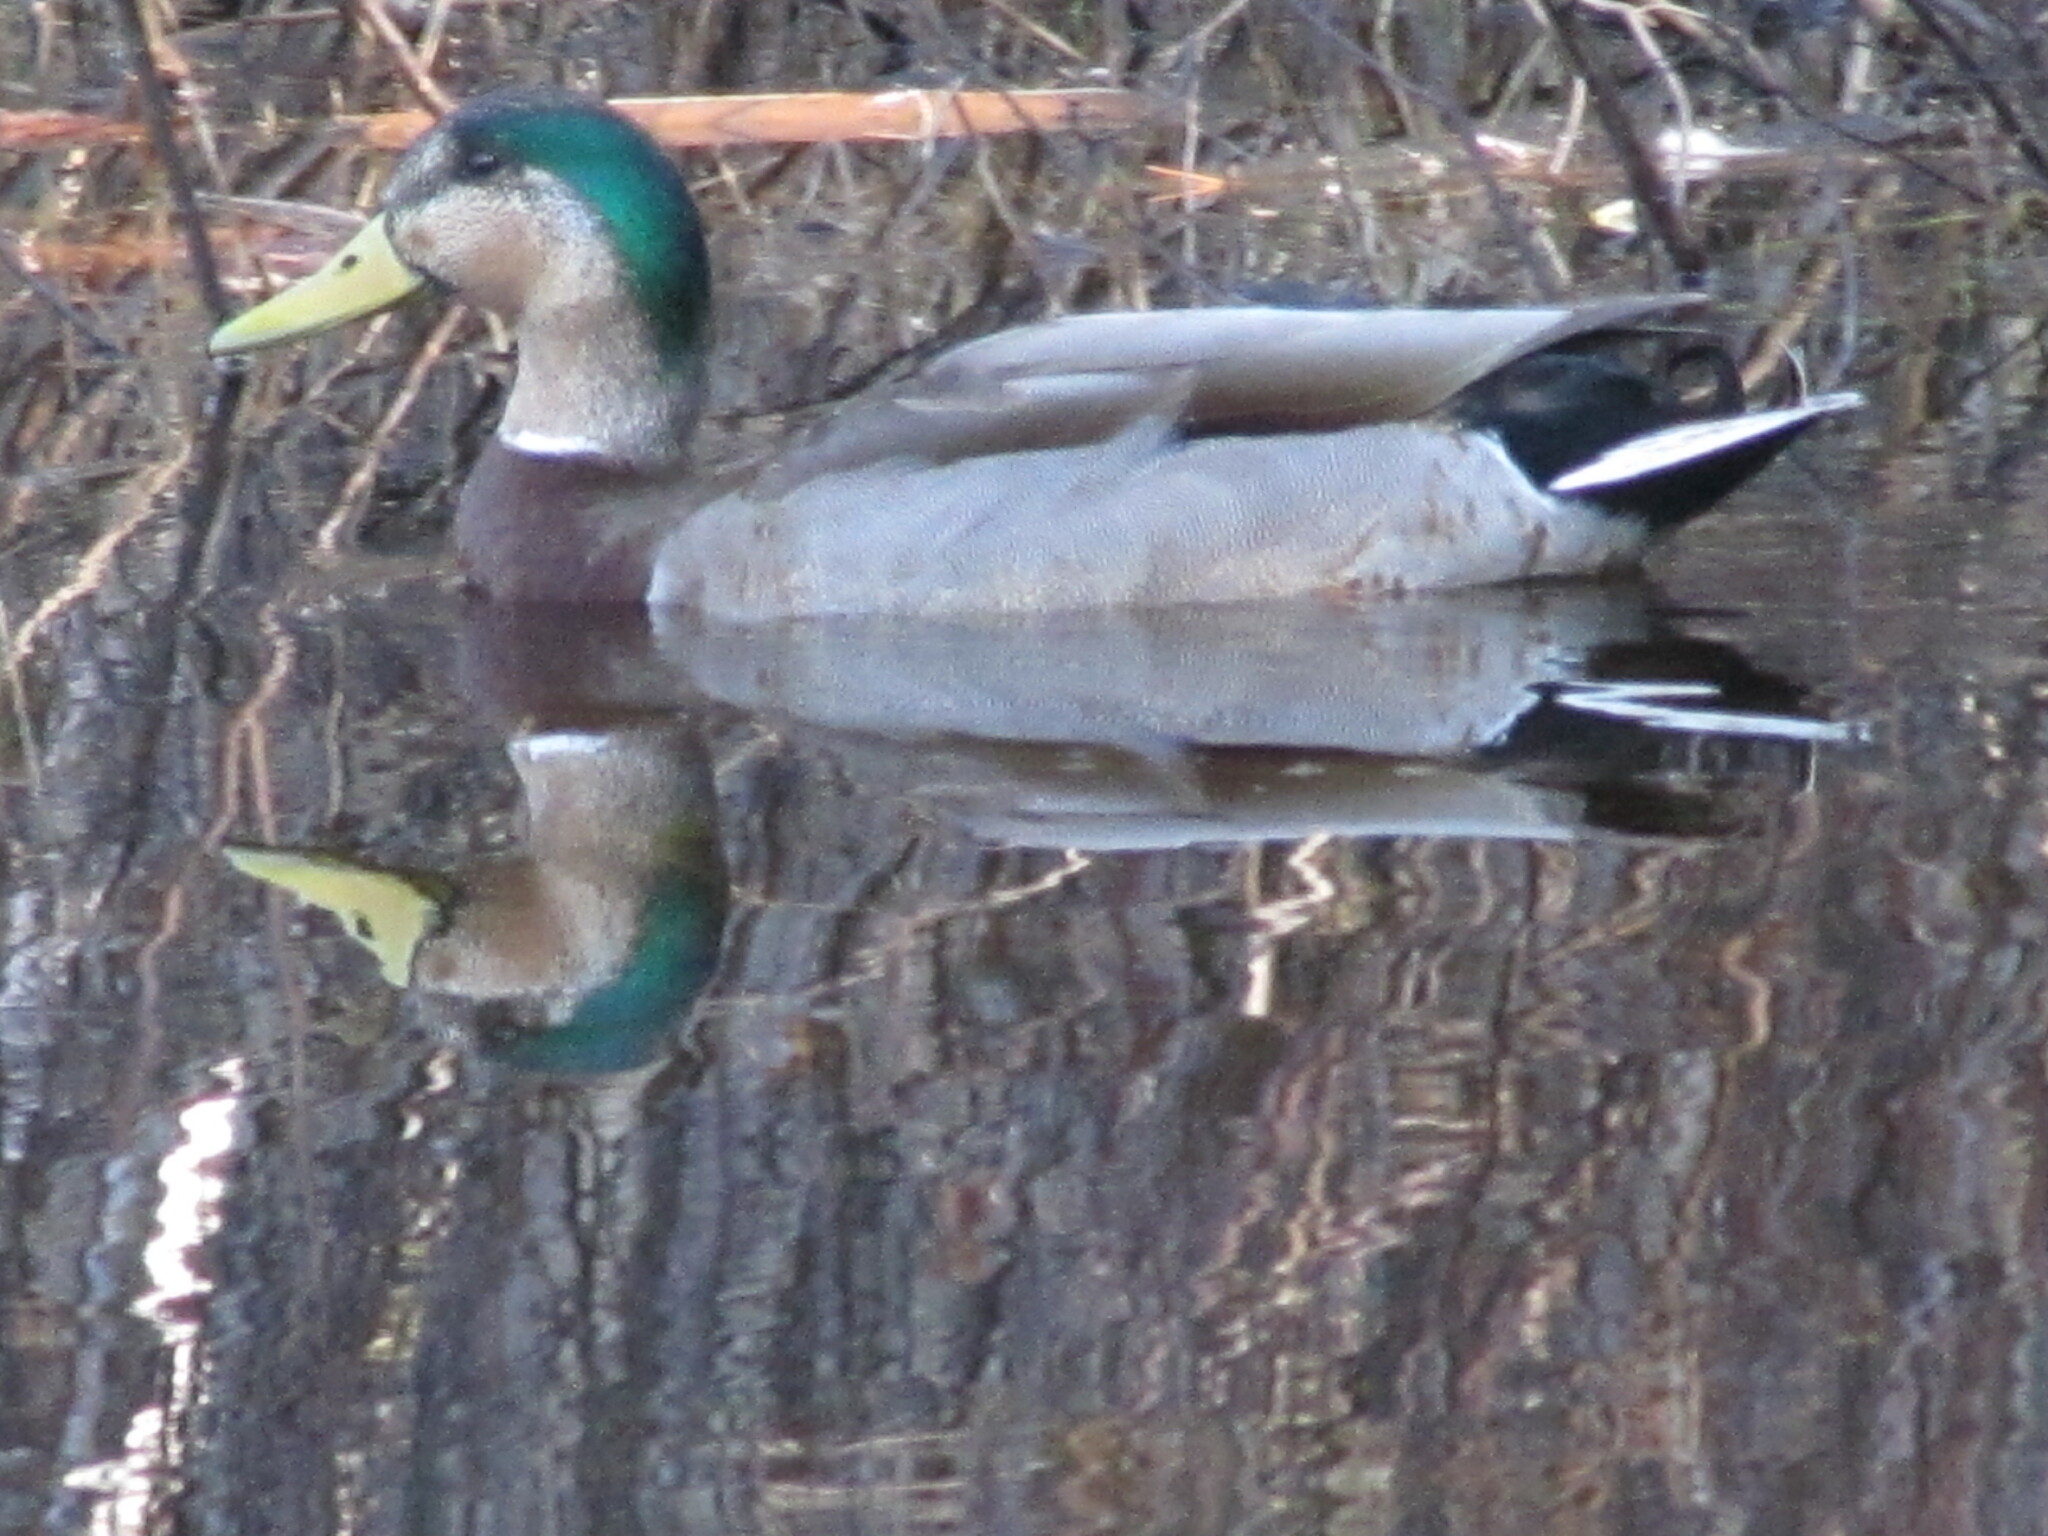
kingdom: Animalia
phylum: Chordata
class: Aves
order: Anseriformes
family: Anatidae
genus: Anas
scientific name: Anas
